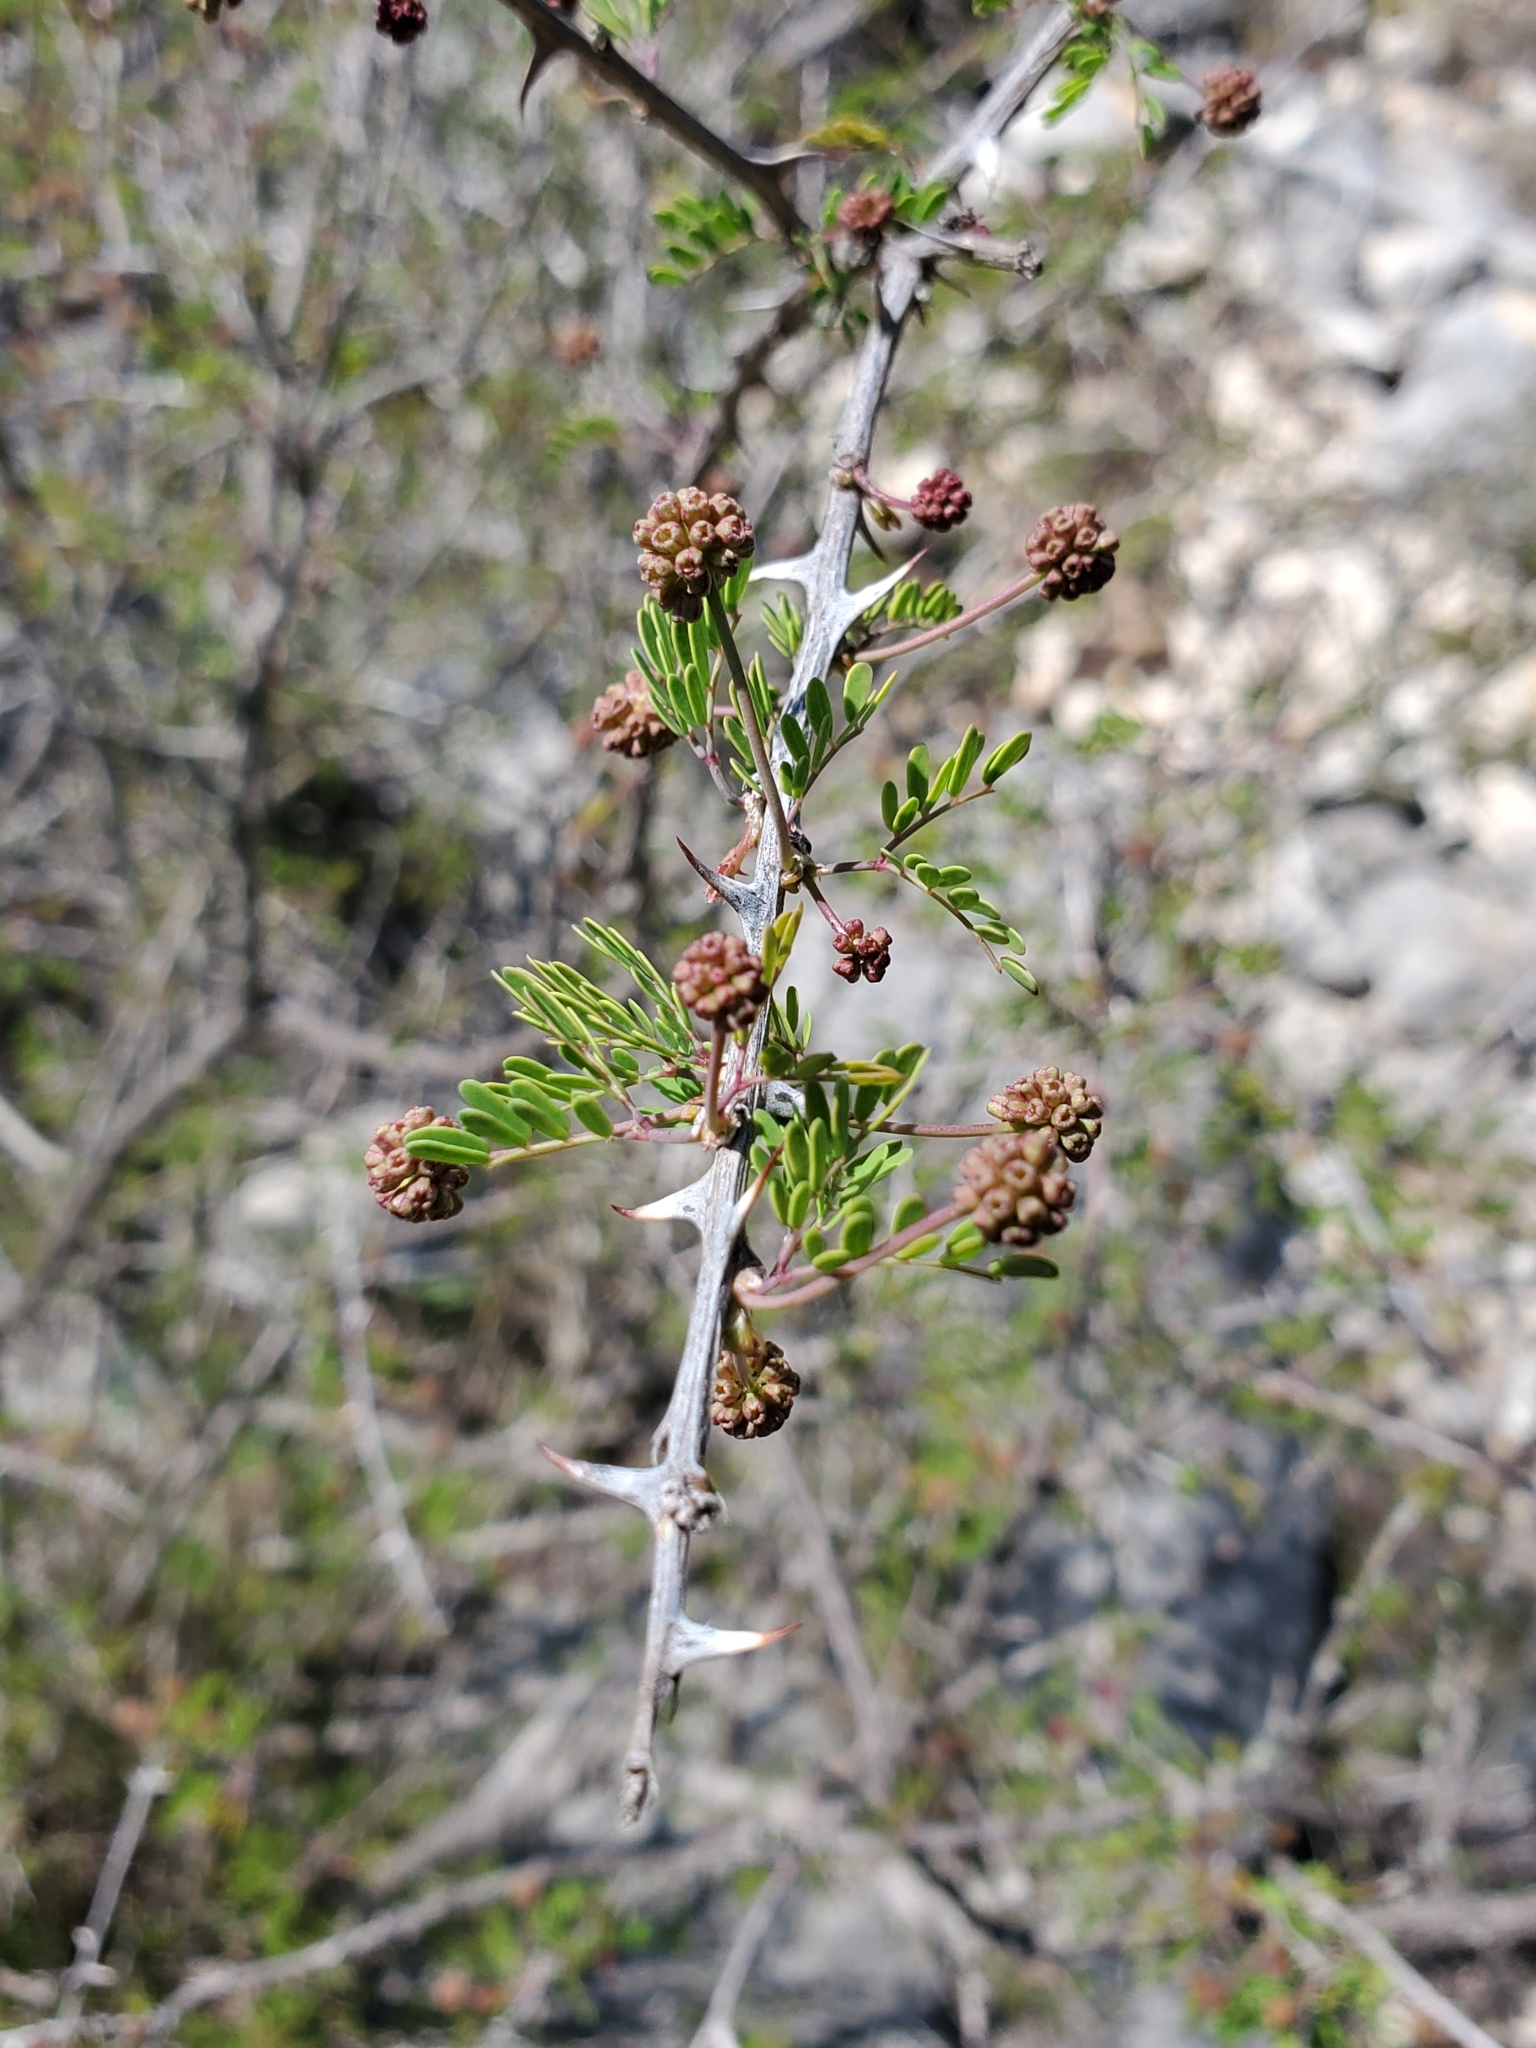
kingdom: Plantae
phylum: Tracheophyta
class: Magnoliopsida
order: Fabales
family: Fabaceae
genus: Mimosa
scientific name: Mimosa borealis
